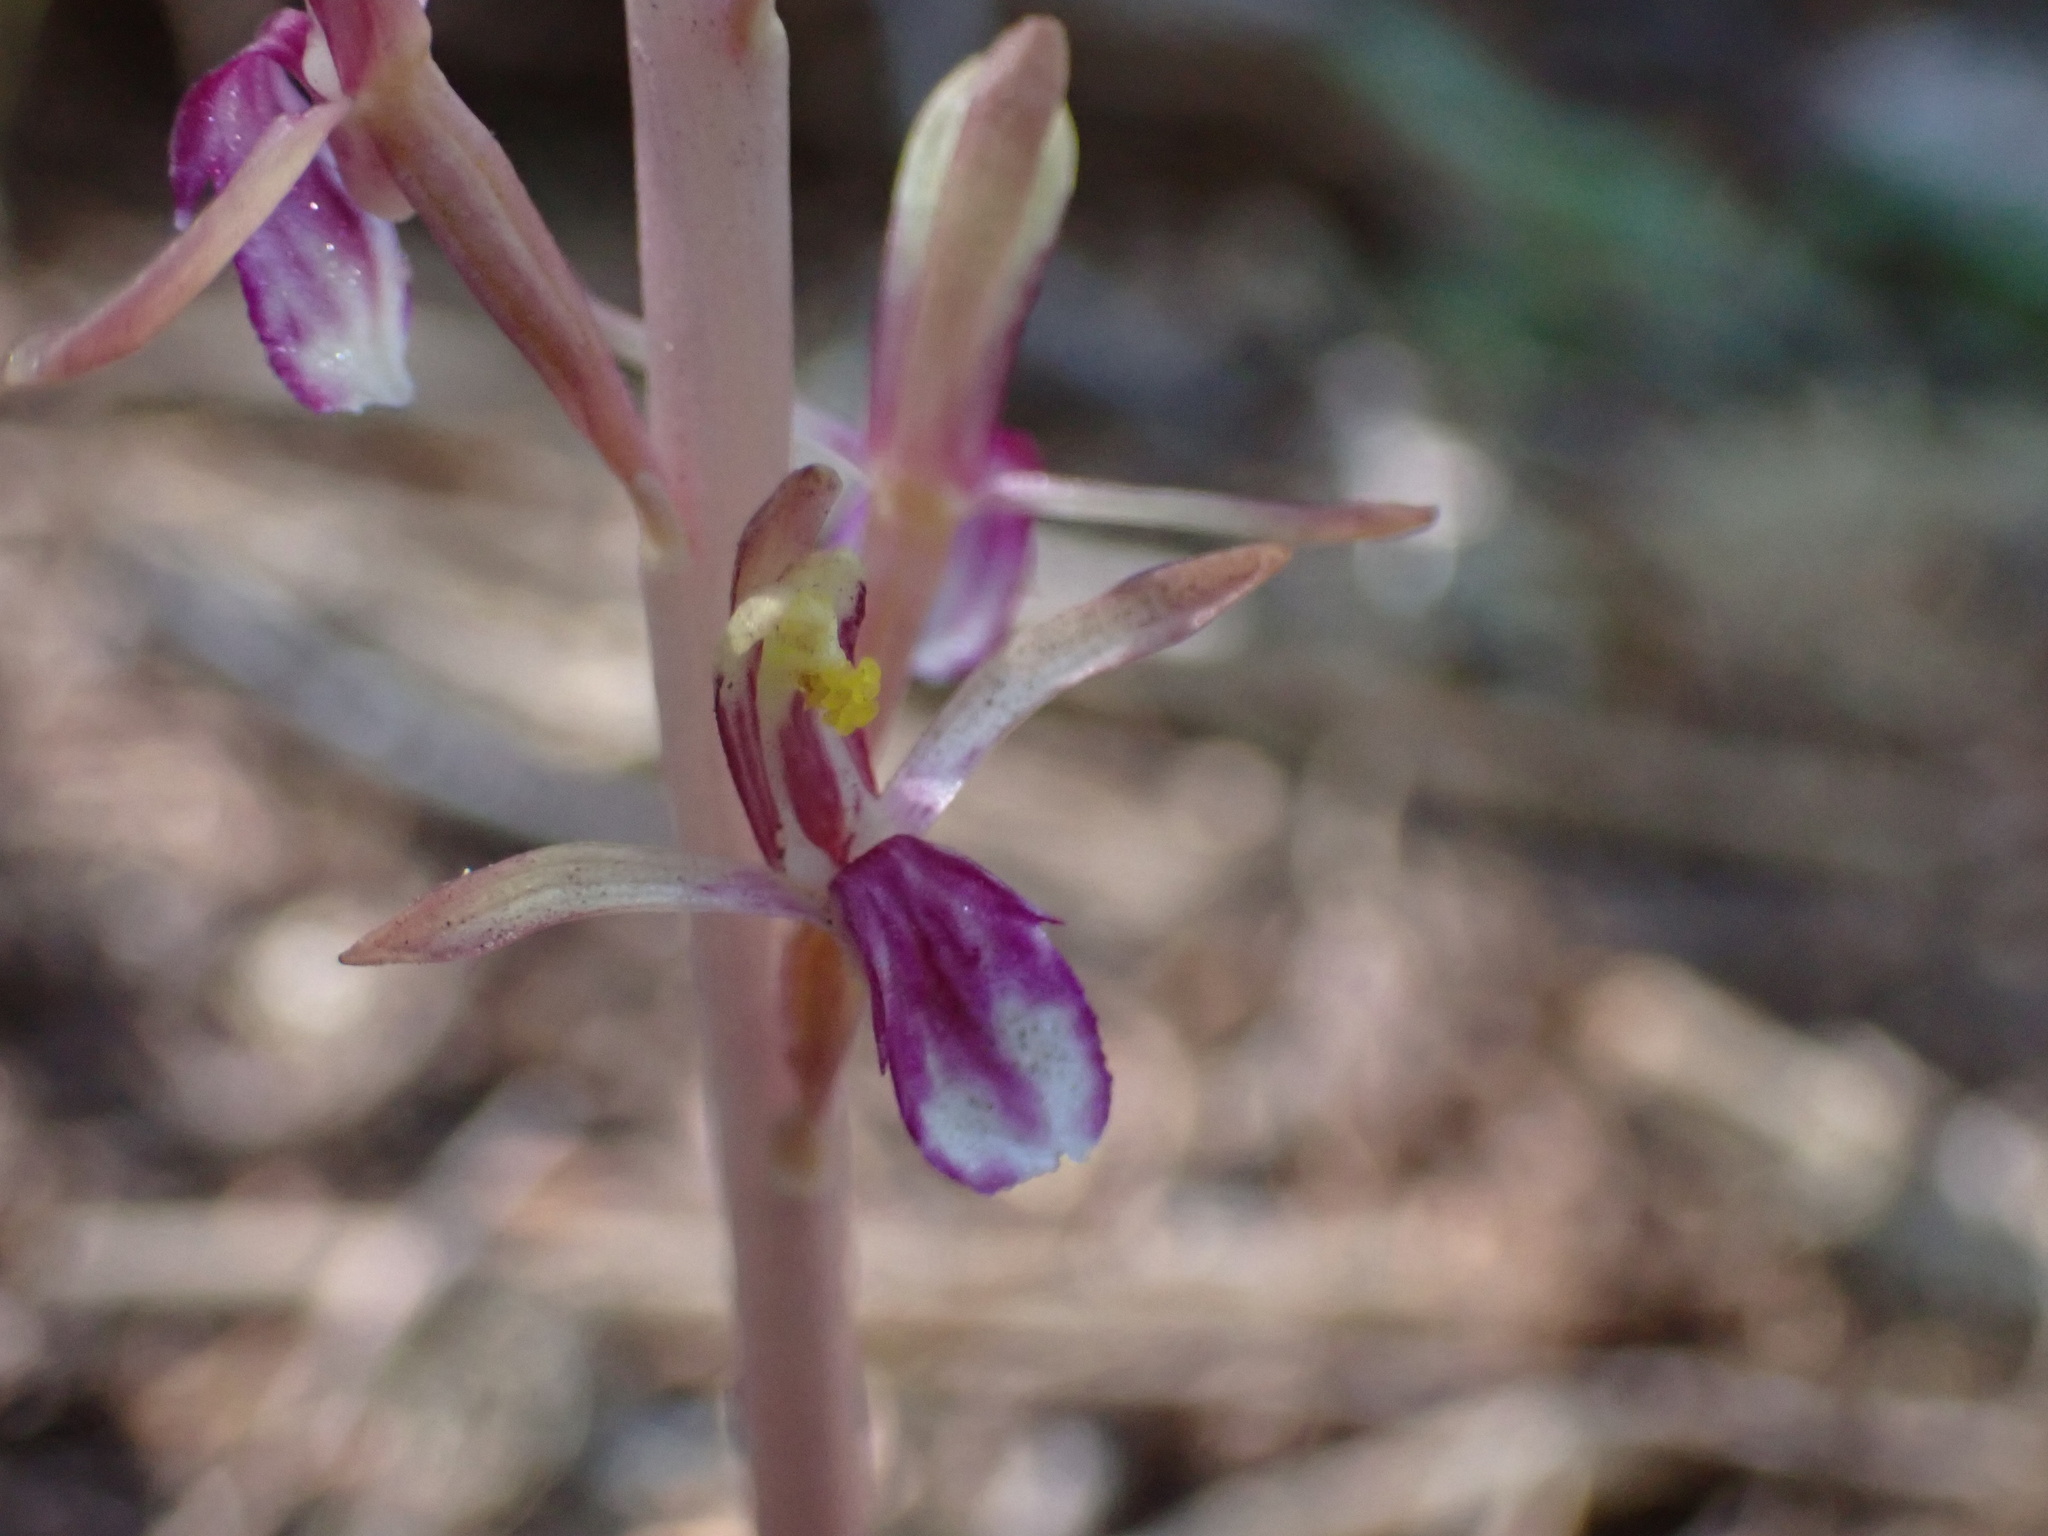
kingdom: Plantae
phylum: Tracheophyta
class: Liliopsida
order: Asparagales
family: Orchidaceae
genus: Corallorhiza
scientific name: Corallorhiza mertensiana
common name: Pacific coralroot
